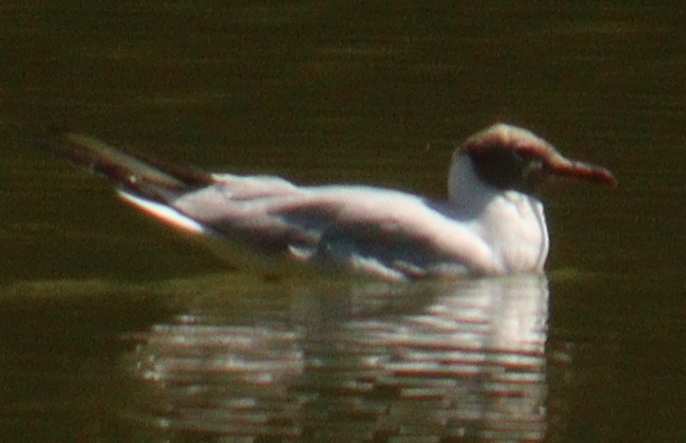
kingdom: Animalia
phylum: Chordata
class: Aves
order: Charadriiformes
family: Laridae
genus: Chroicocephalus
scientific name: Chroicocephalus ridibundus
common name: Black-headed gull
